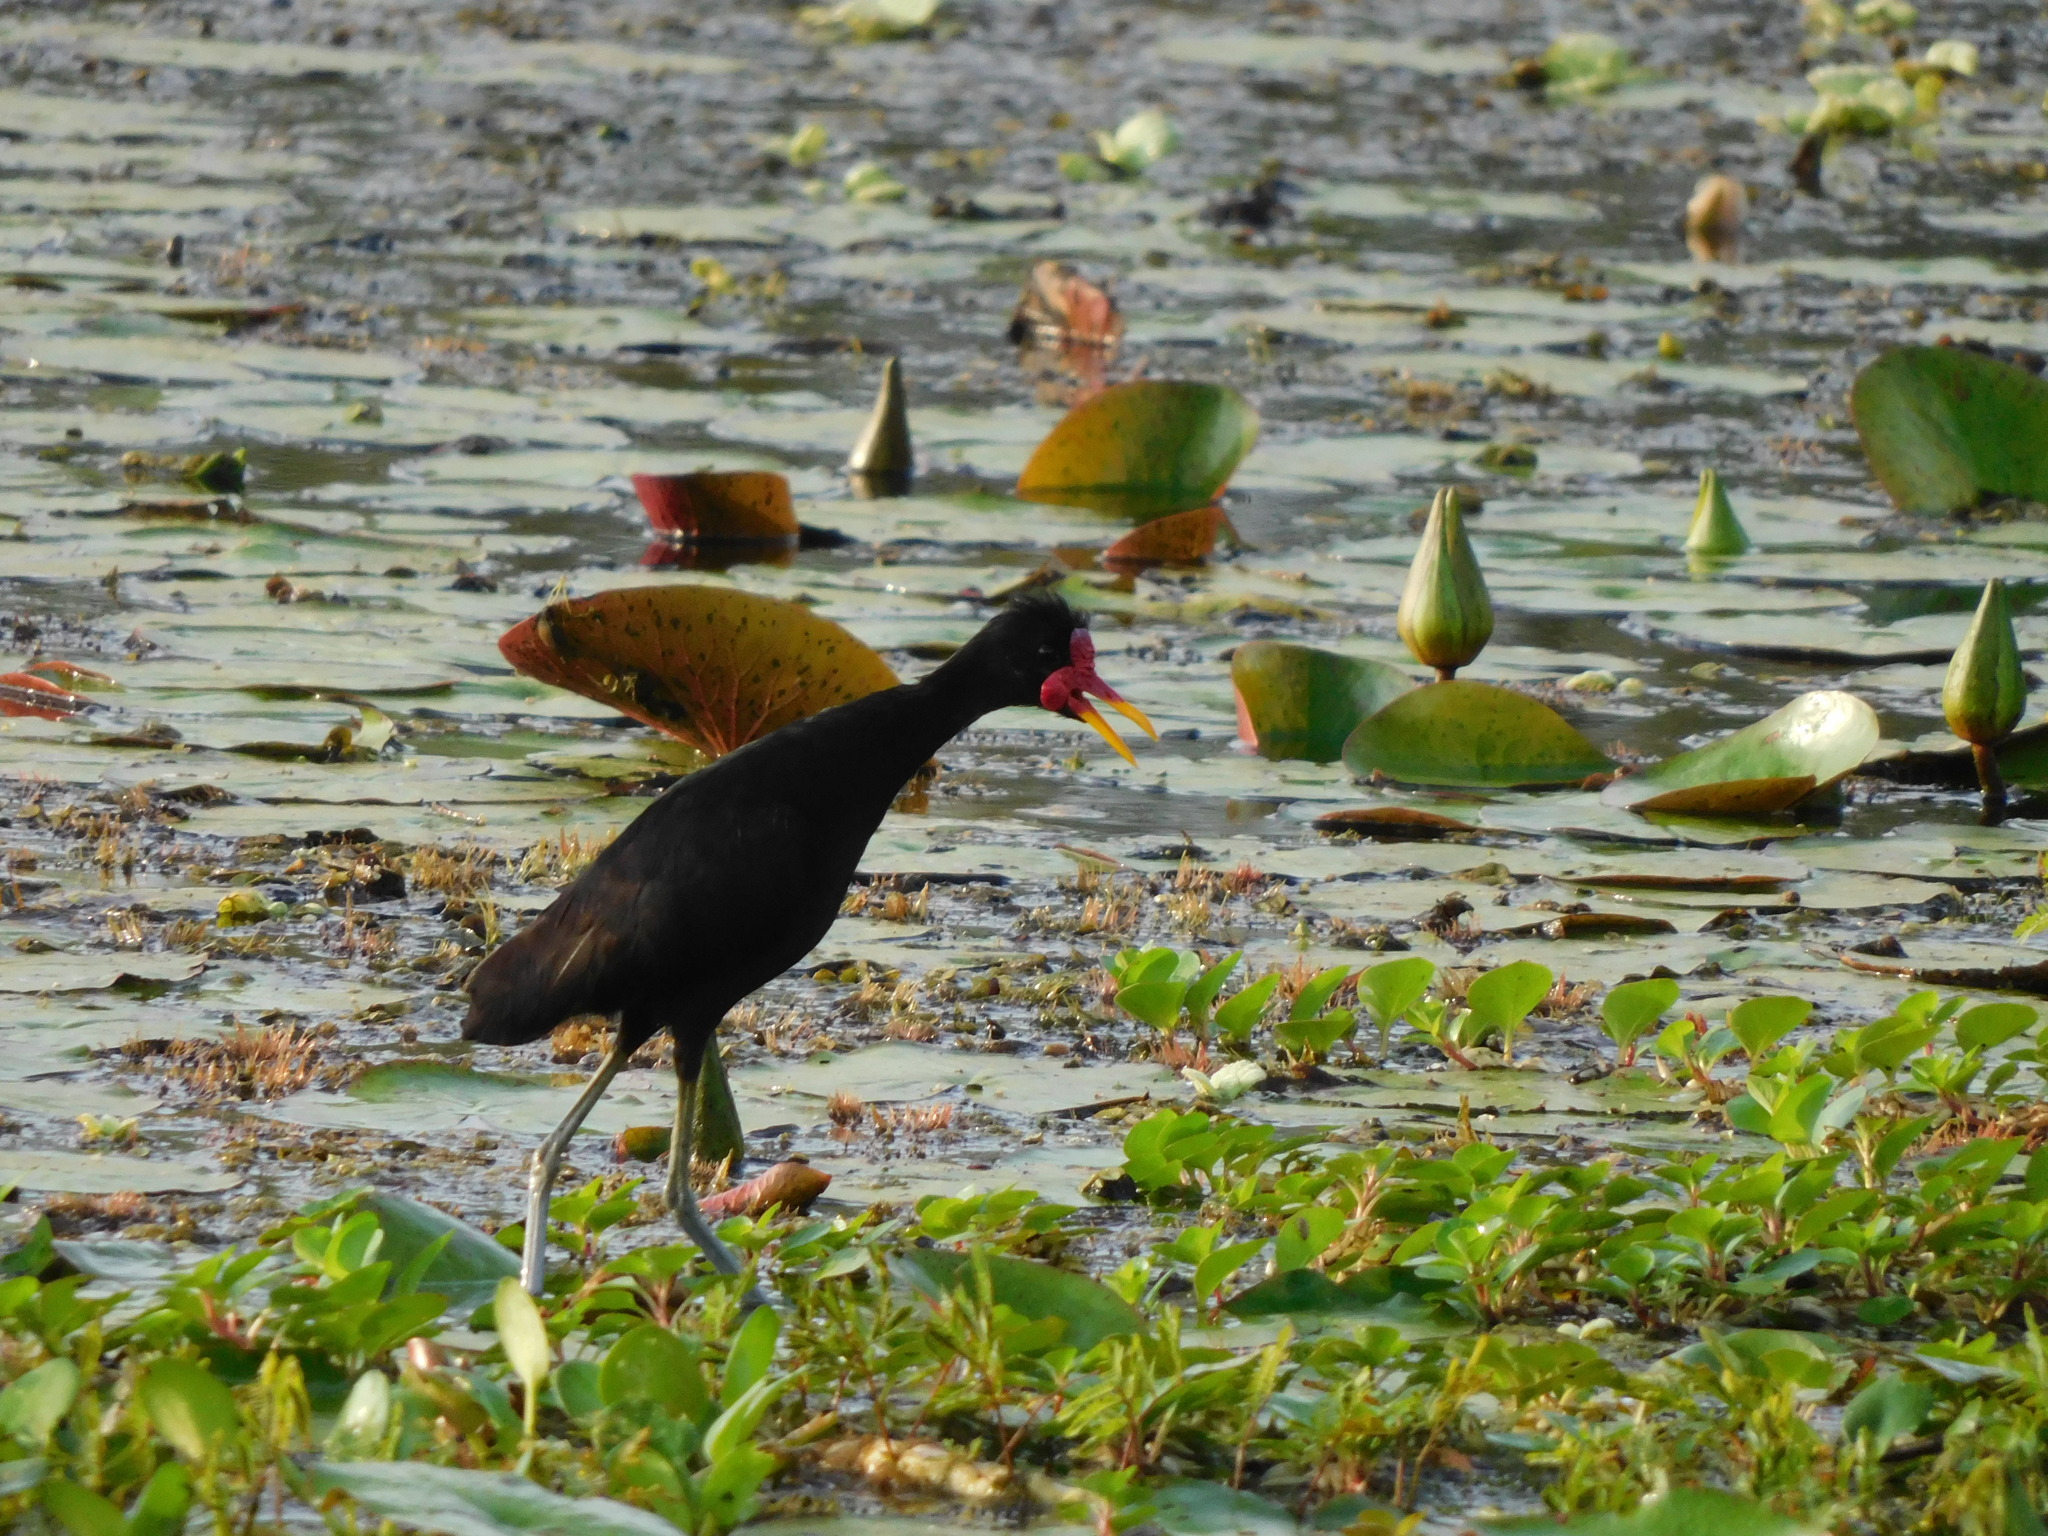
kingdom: Animalia
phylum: Chordata
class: Aves
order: Charadriiformes
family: Jacanidae
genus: Jacana
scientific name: Jacana jacana
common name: Wattled jacana
